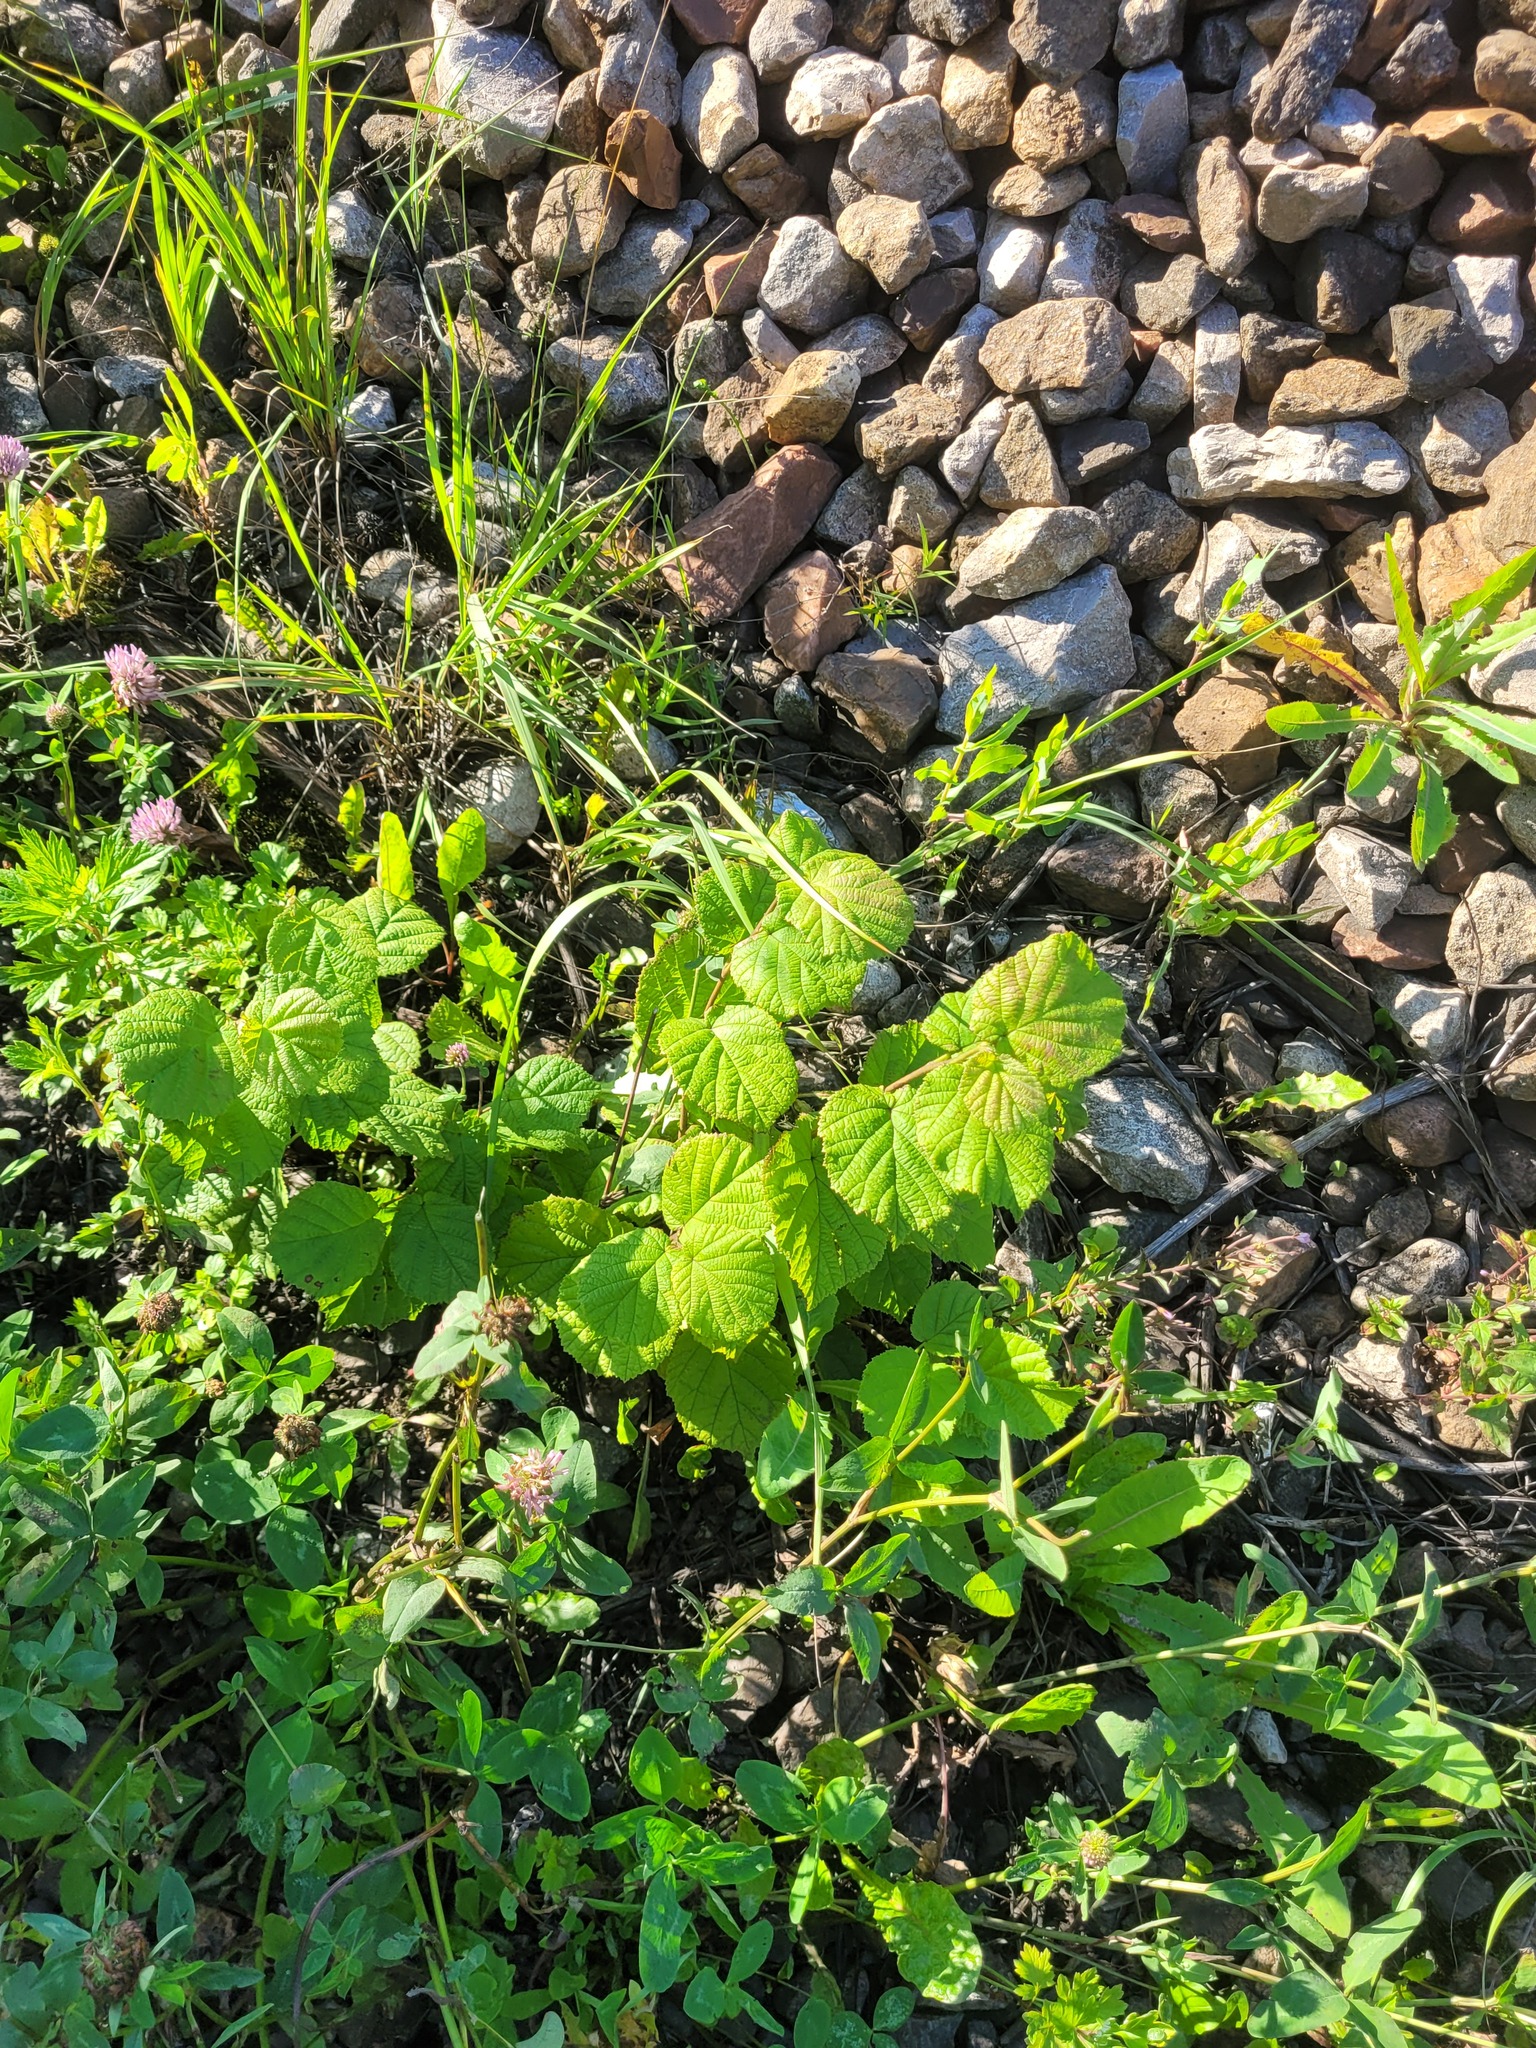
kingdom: Plantae
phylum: Tracheophyta
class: Magnoliopsida
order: Fagales
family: Betulaceae
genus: Corylus
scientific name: Corylus avellana
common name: European hazel
